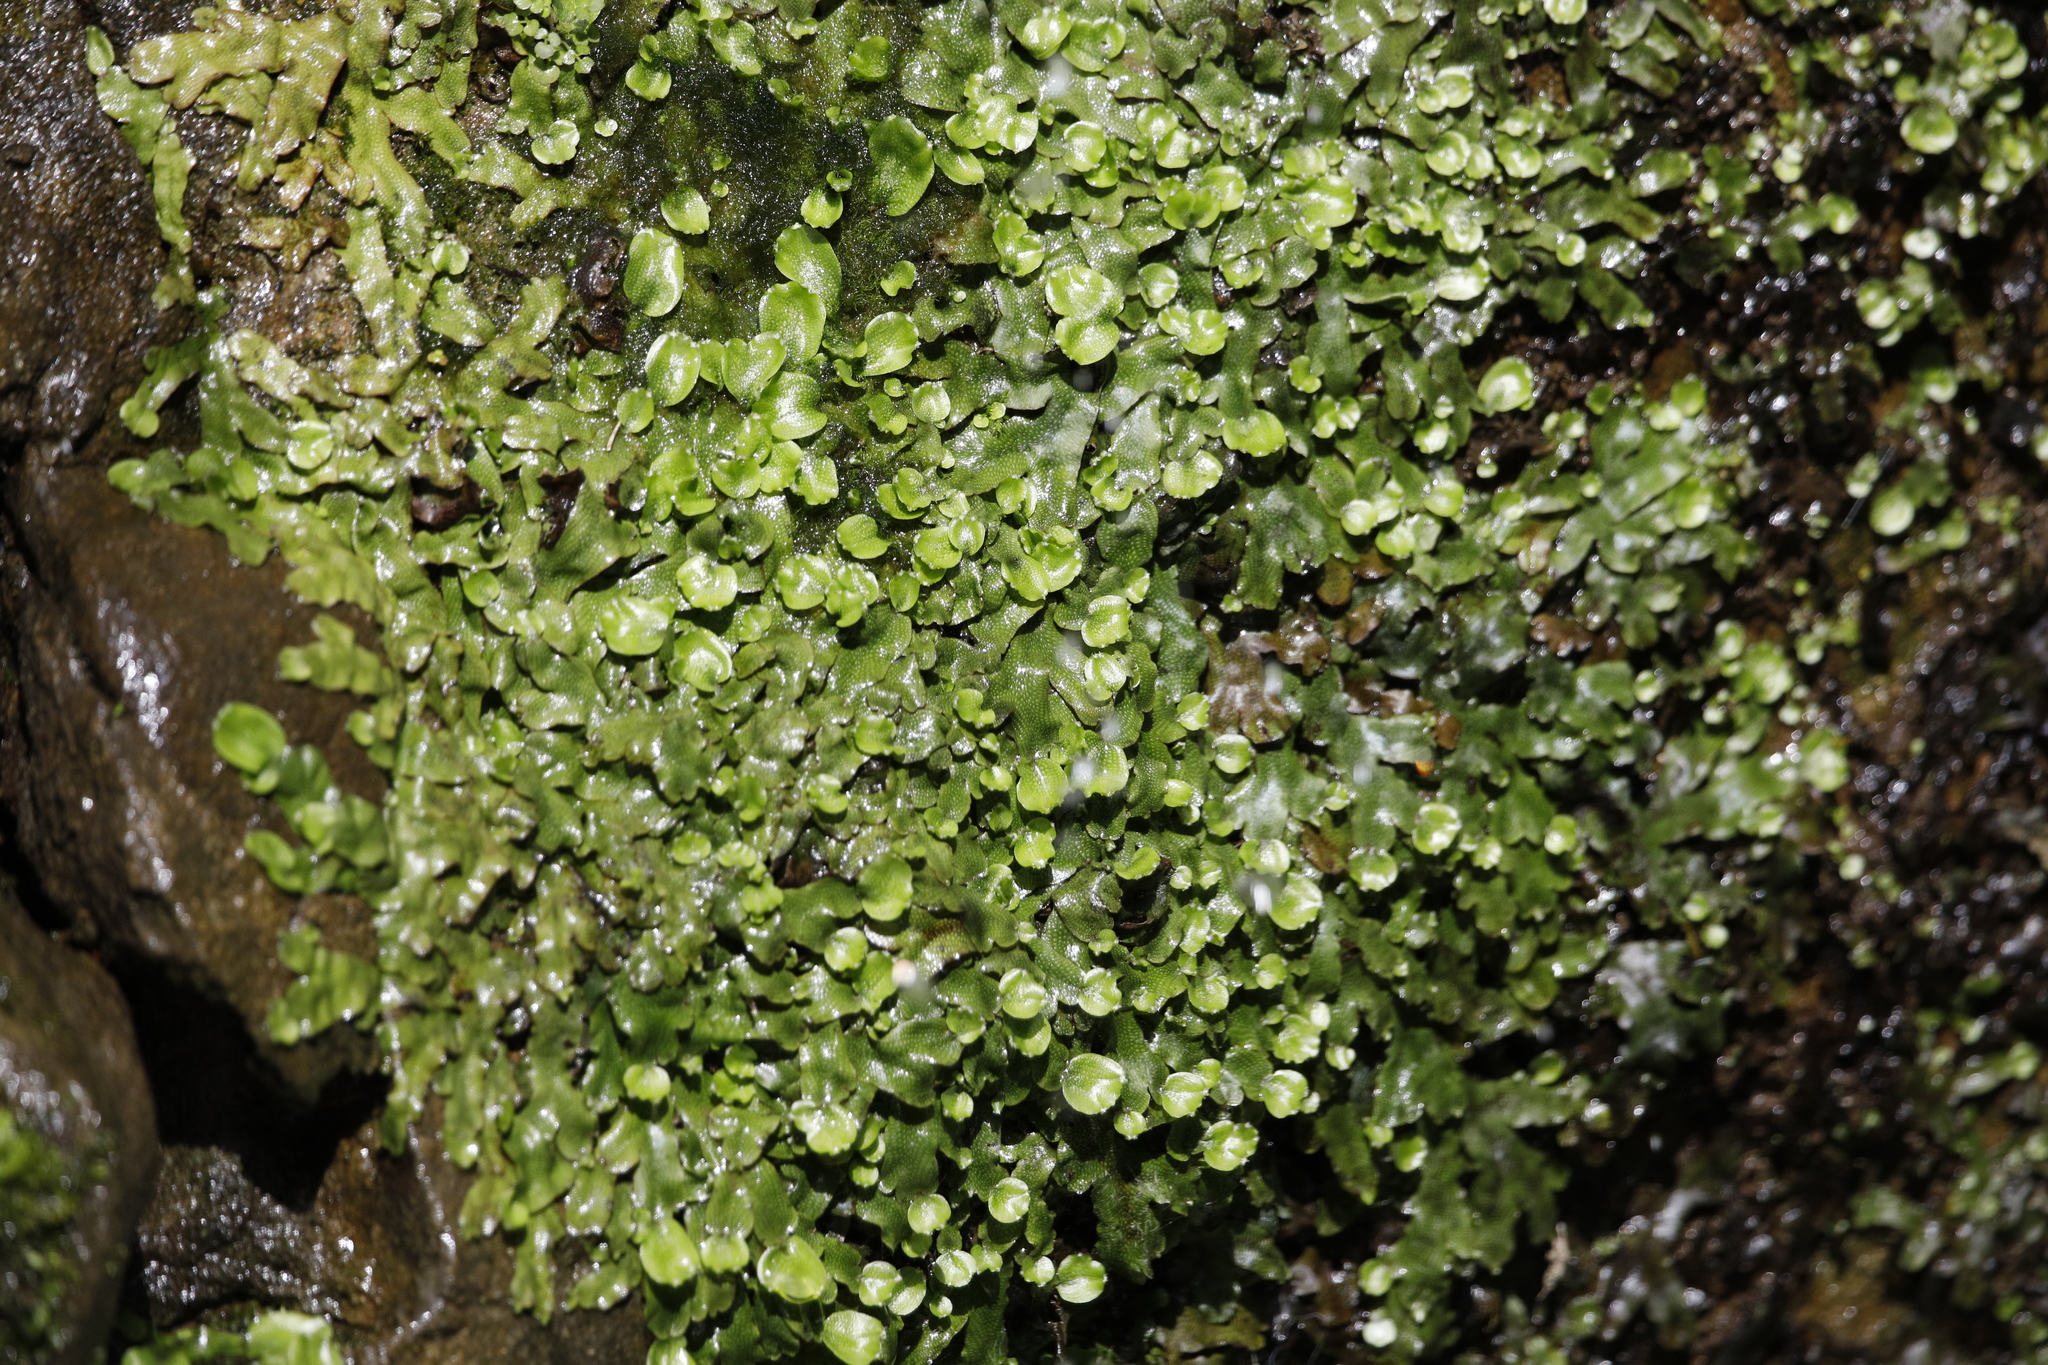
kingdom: Plantae
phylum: Marchantiophyta
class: Marchantiopsida
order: Marchantiales
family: Conocephalaceae
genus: Conocephalum
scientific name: Conocephalum conicum
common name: Great scented liverwort
